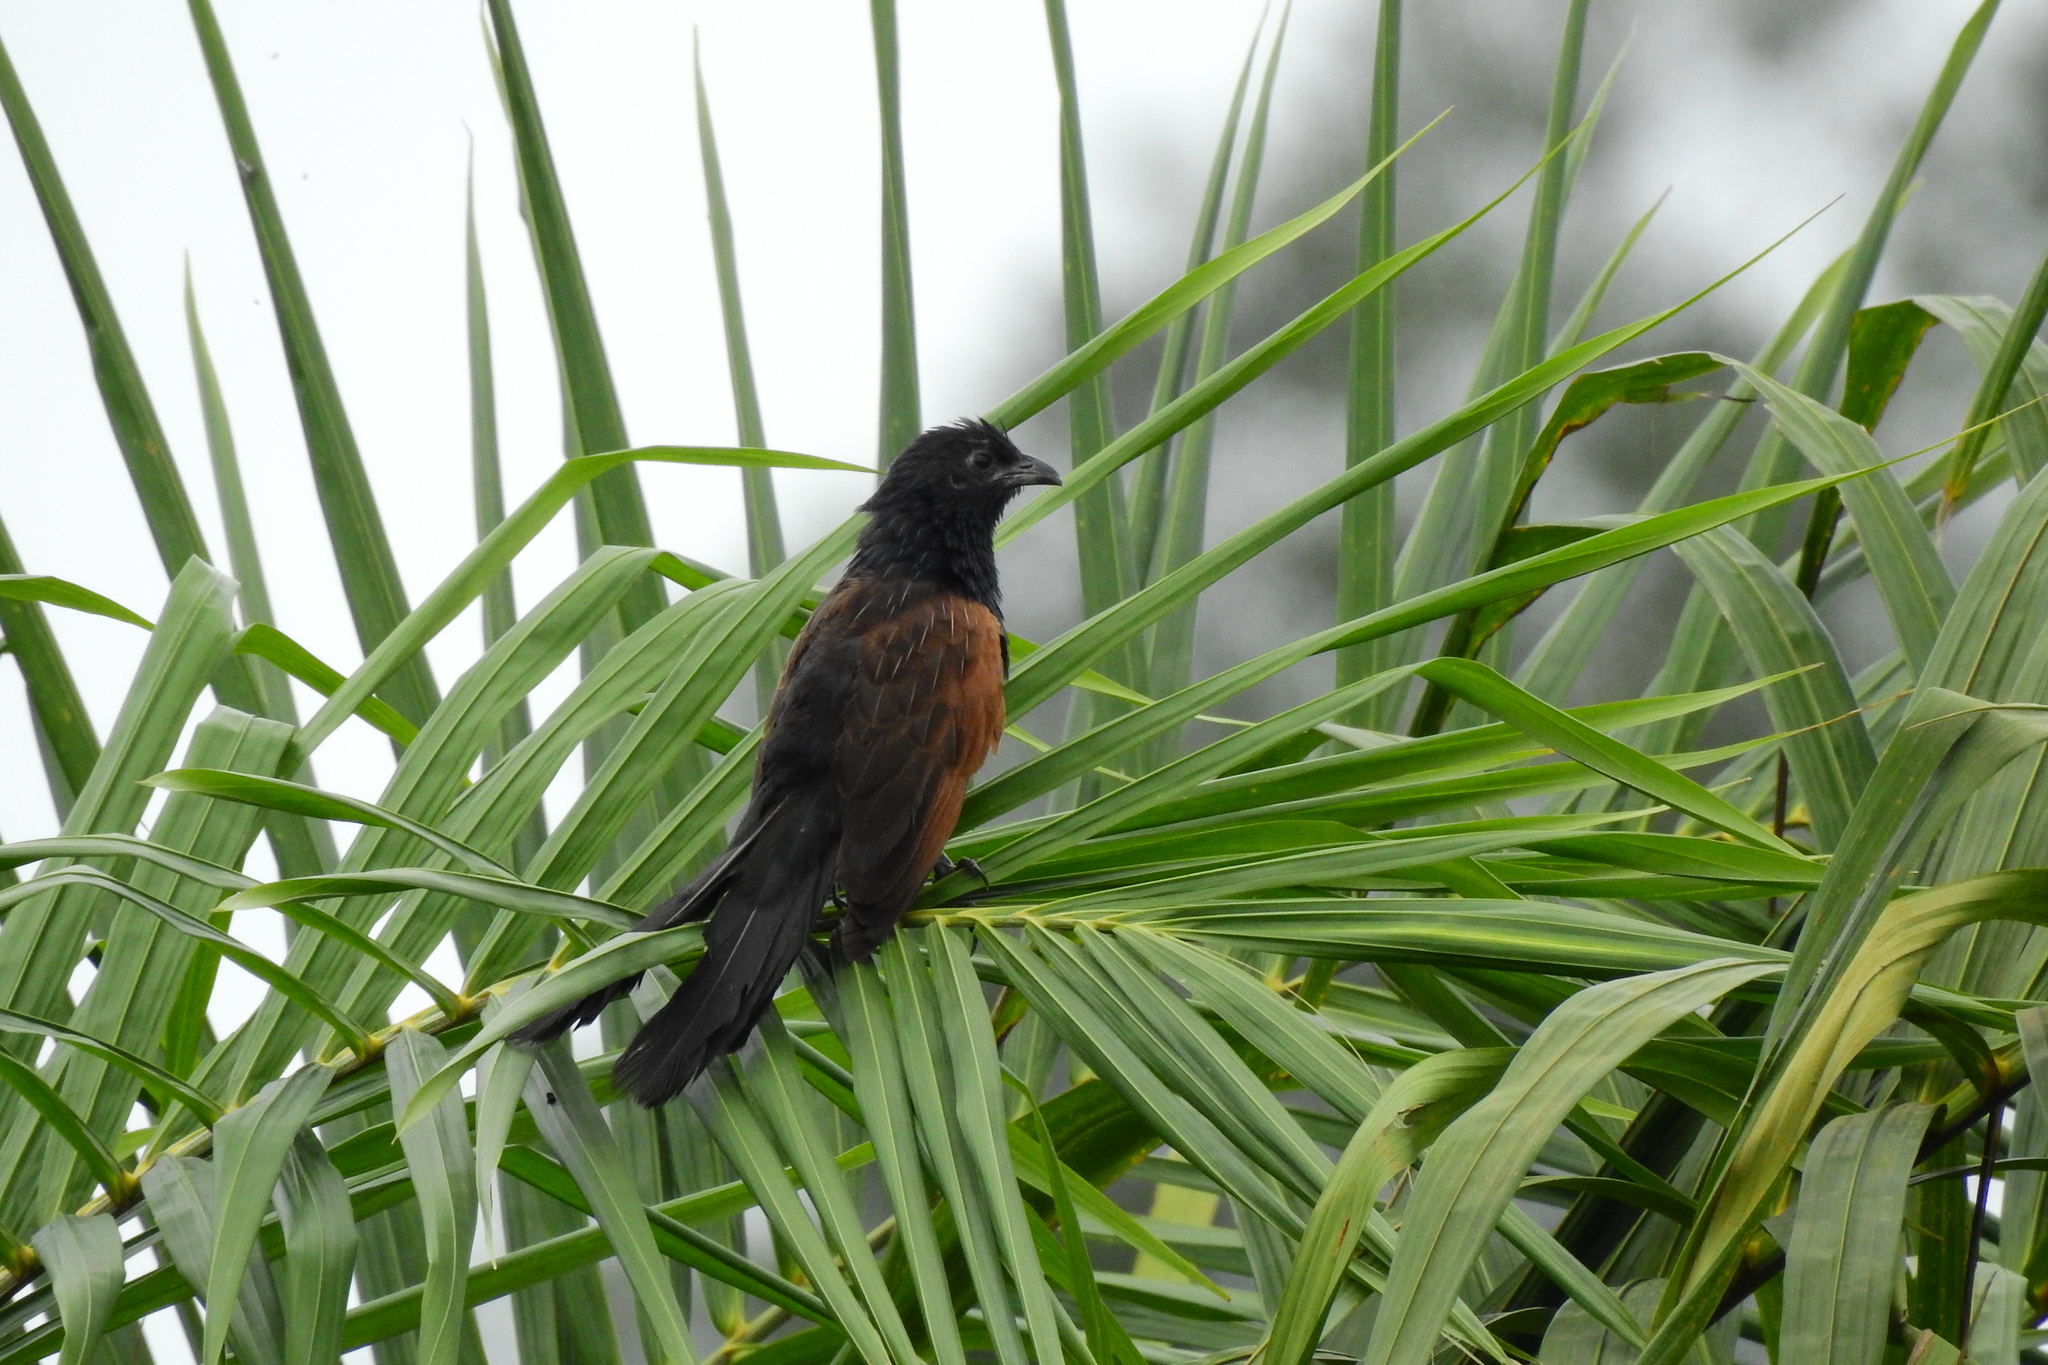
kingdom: Animalia
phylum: Chordata
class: Aves
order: Cuculiformes
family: Cuculidae
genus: Centropus
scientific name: Centropus bengalensis
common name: Lesser coucal
